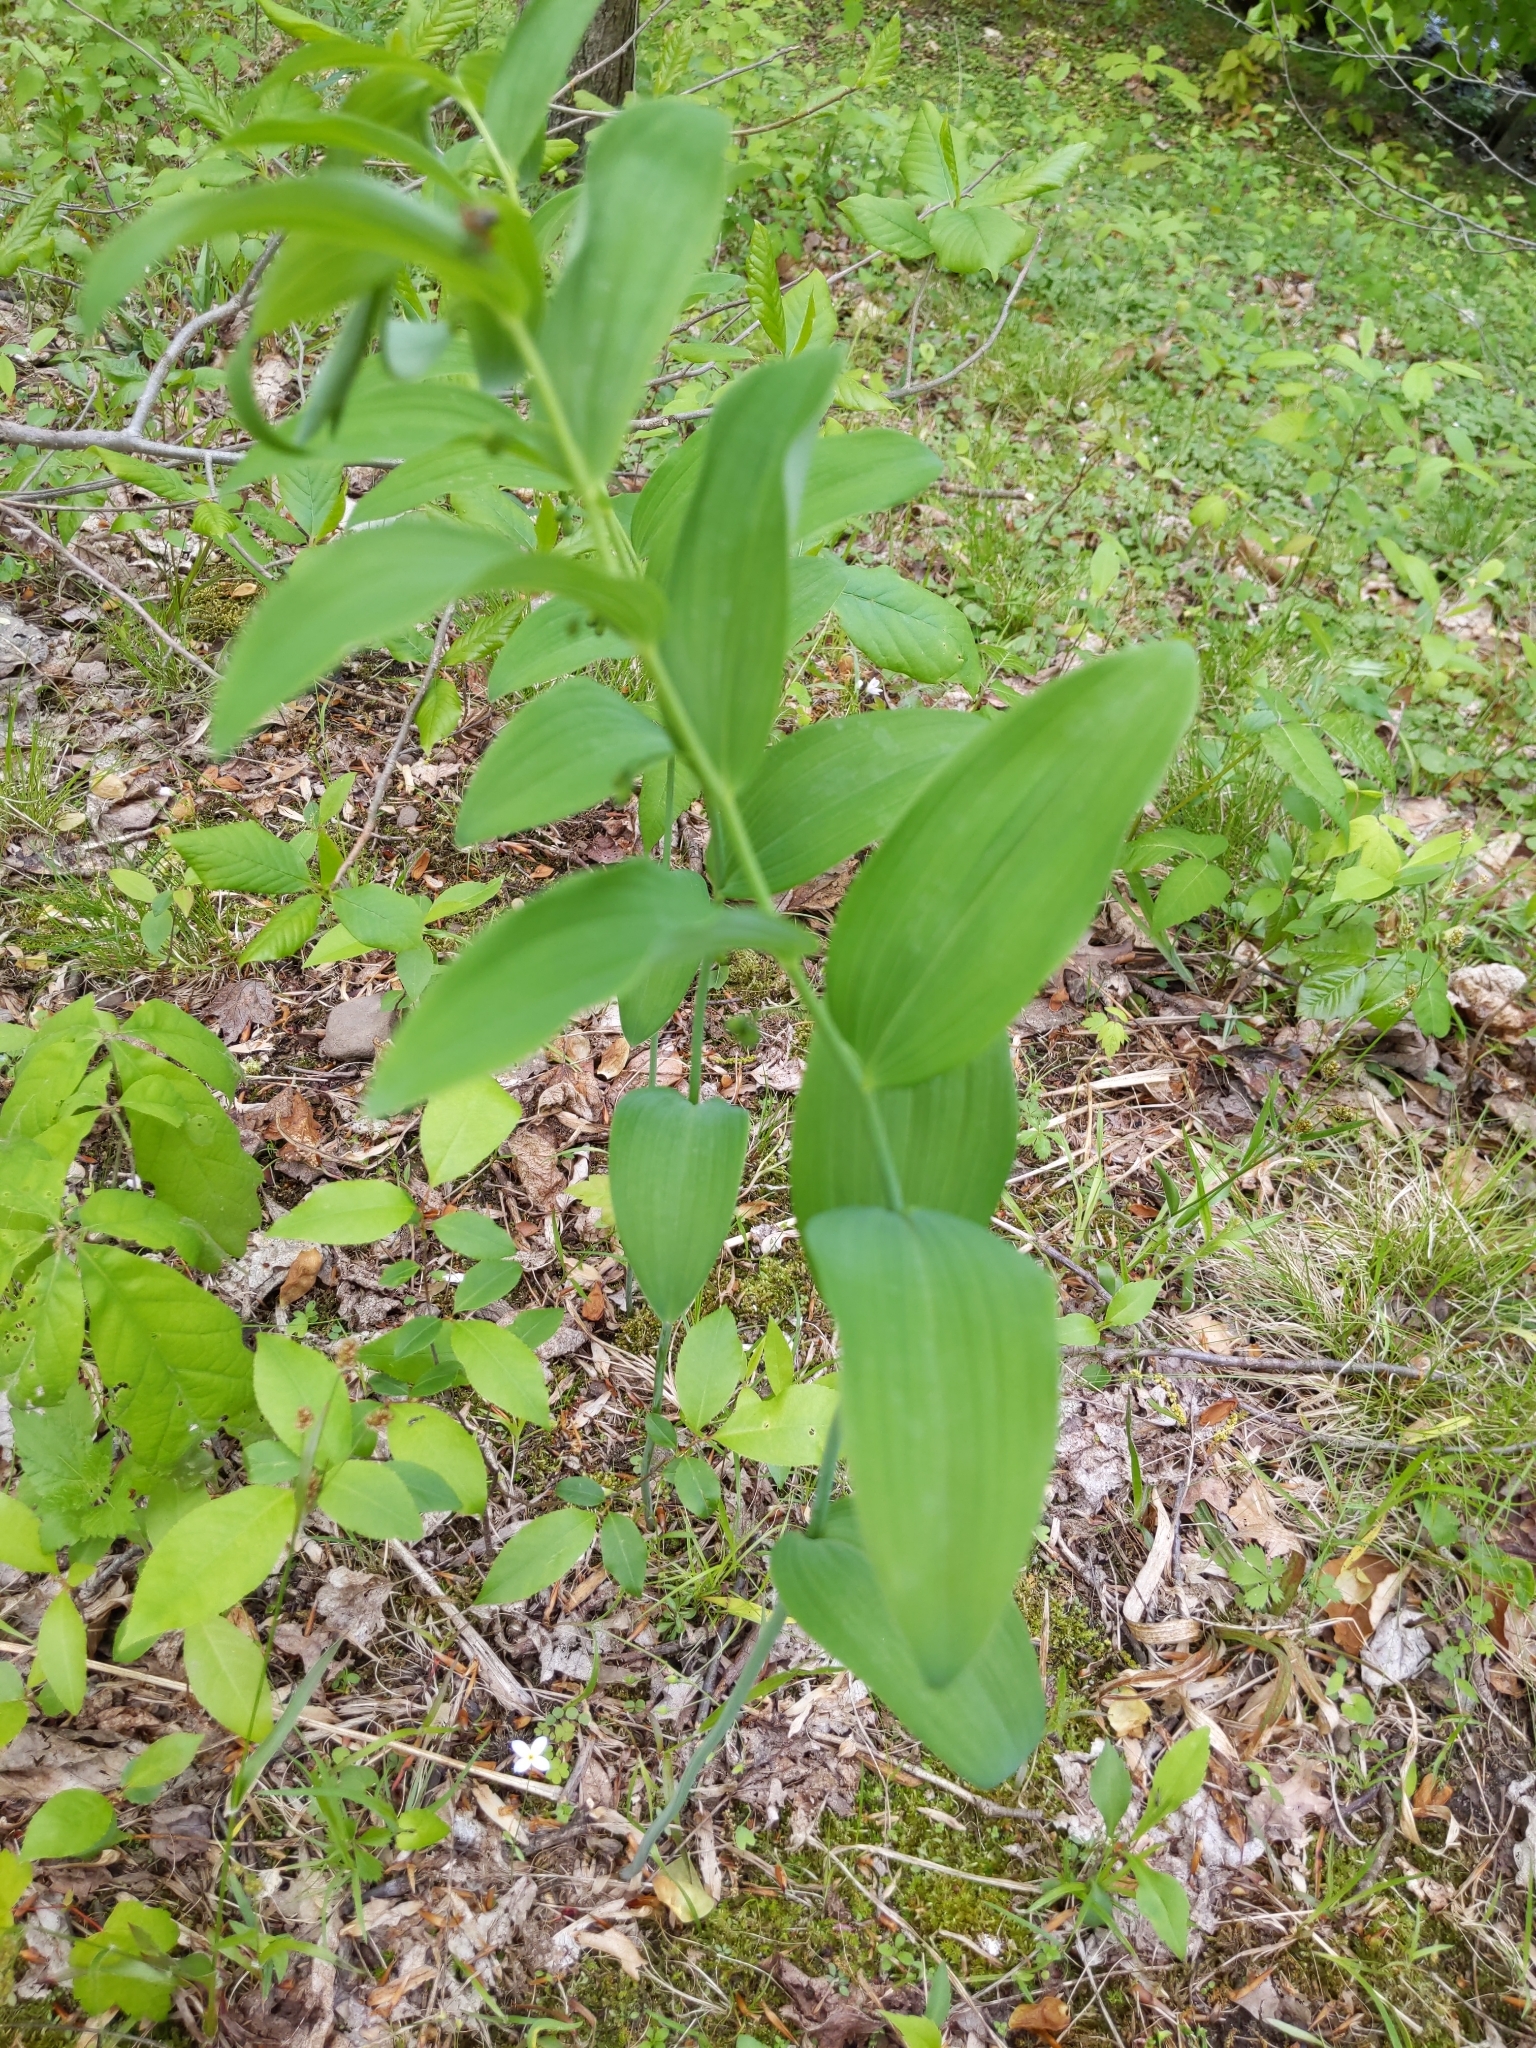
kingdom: Plantae
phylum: Tracheophyta
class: Liliopsida
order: Asparagales
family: Asparagaceae
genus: Polygonatum
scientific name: Polygonatum biflorum
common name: American solomon's-seal
